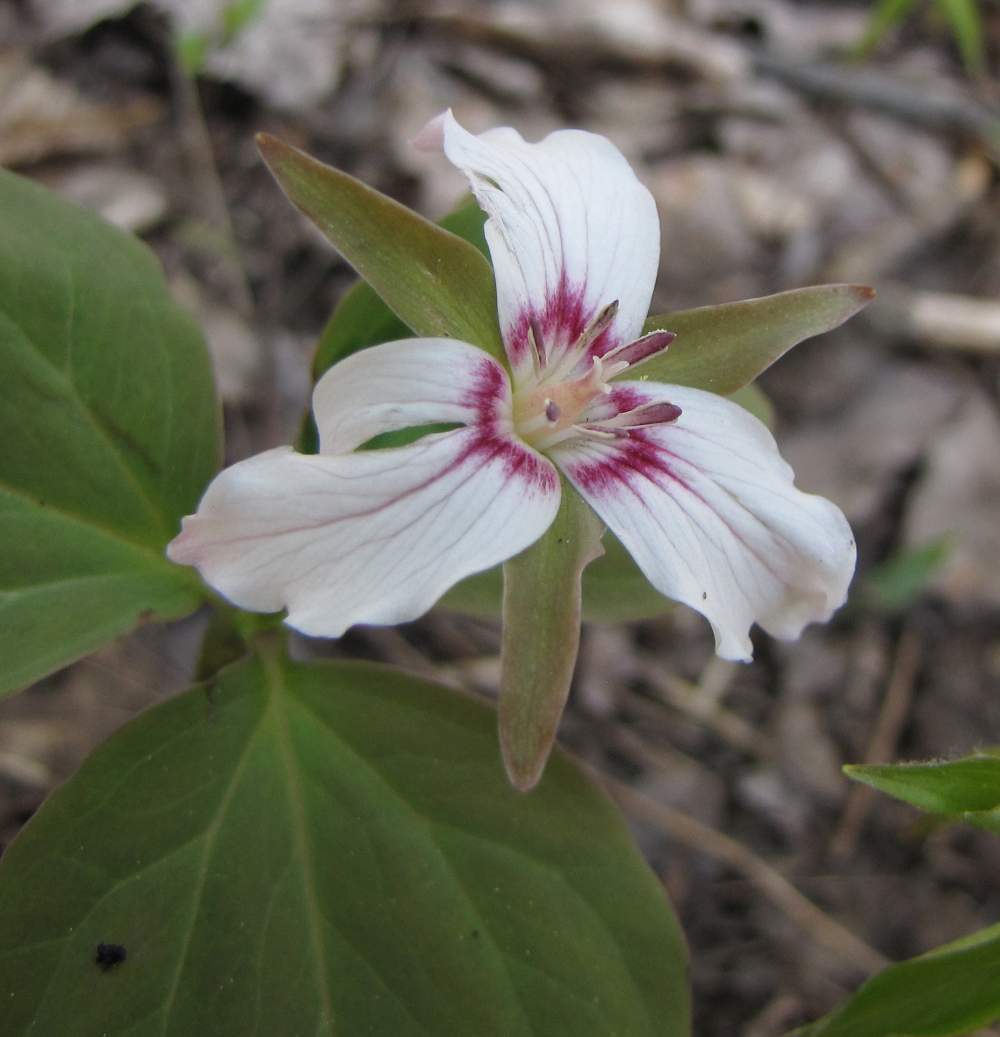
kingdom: Plantae
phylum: Tracheophyta
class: Liliopsida
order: Liliales
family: Melanthiaceae
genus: Trillium
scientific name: Trillium undulatum
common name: Paint trillium
